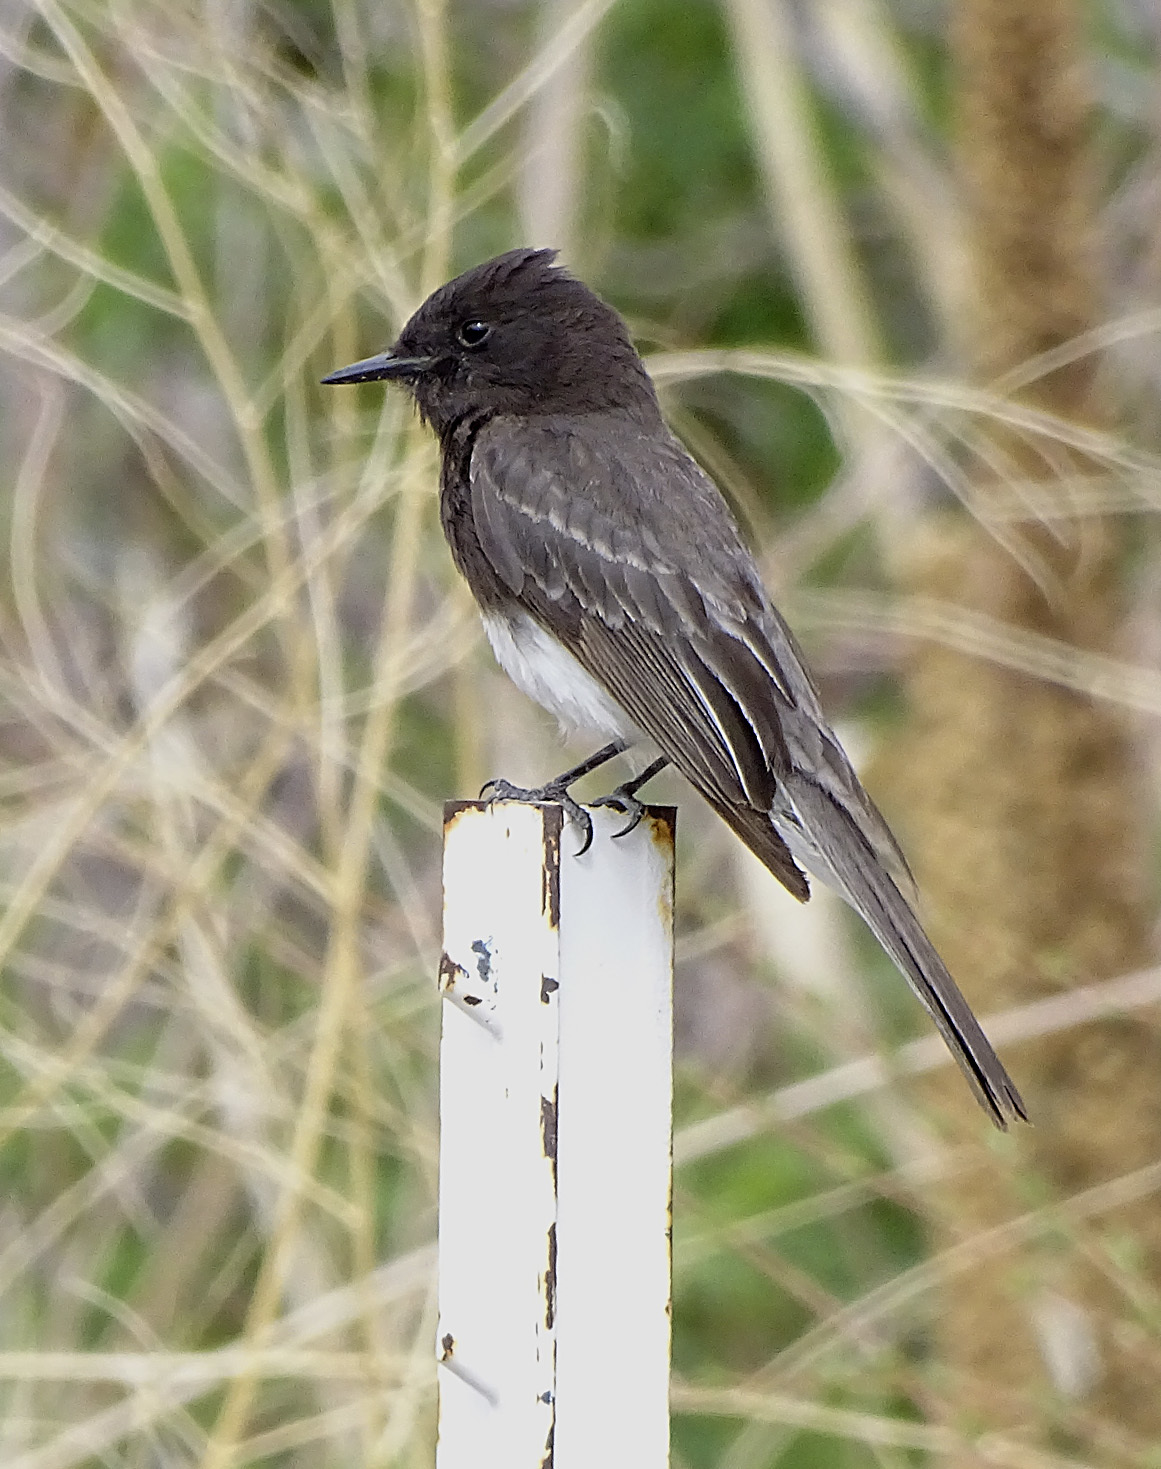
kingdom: Animalia
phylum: Chordata
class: Aves
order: Passeriformes
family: Tyrannidae
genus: Sayornis
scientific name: Sayornis nigricans
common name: Black phoebe
